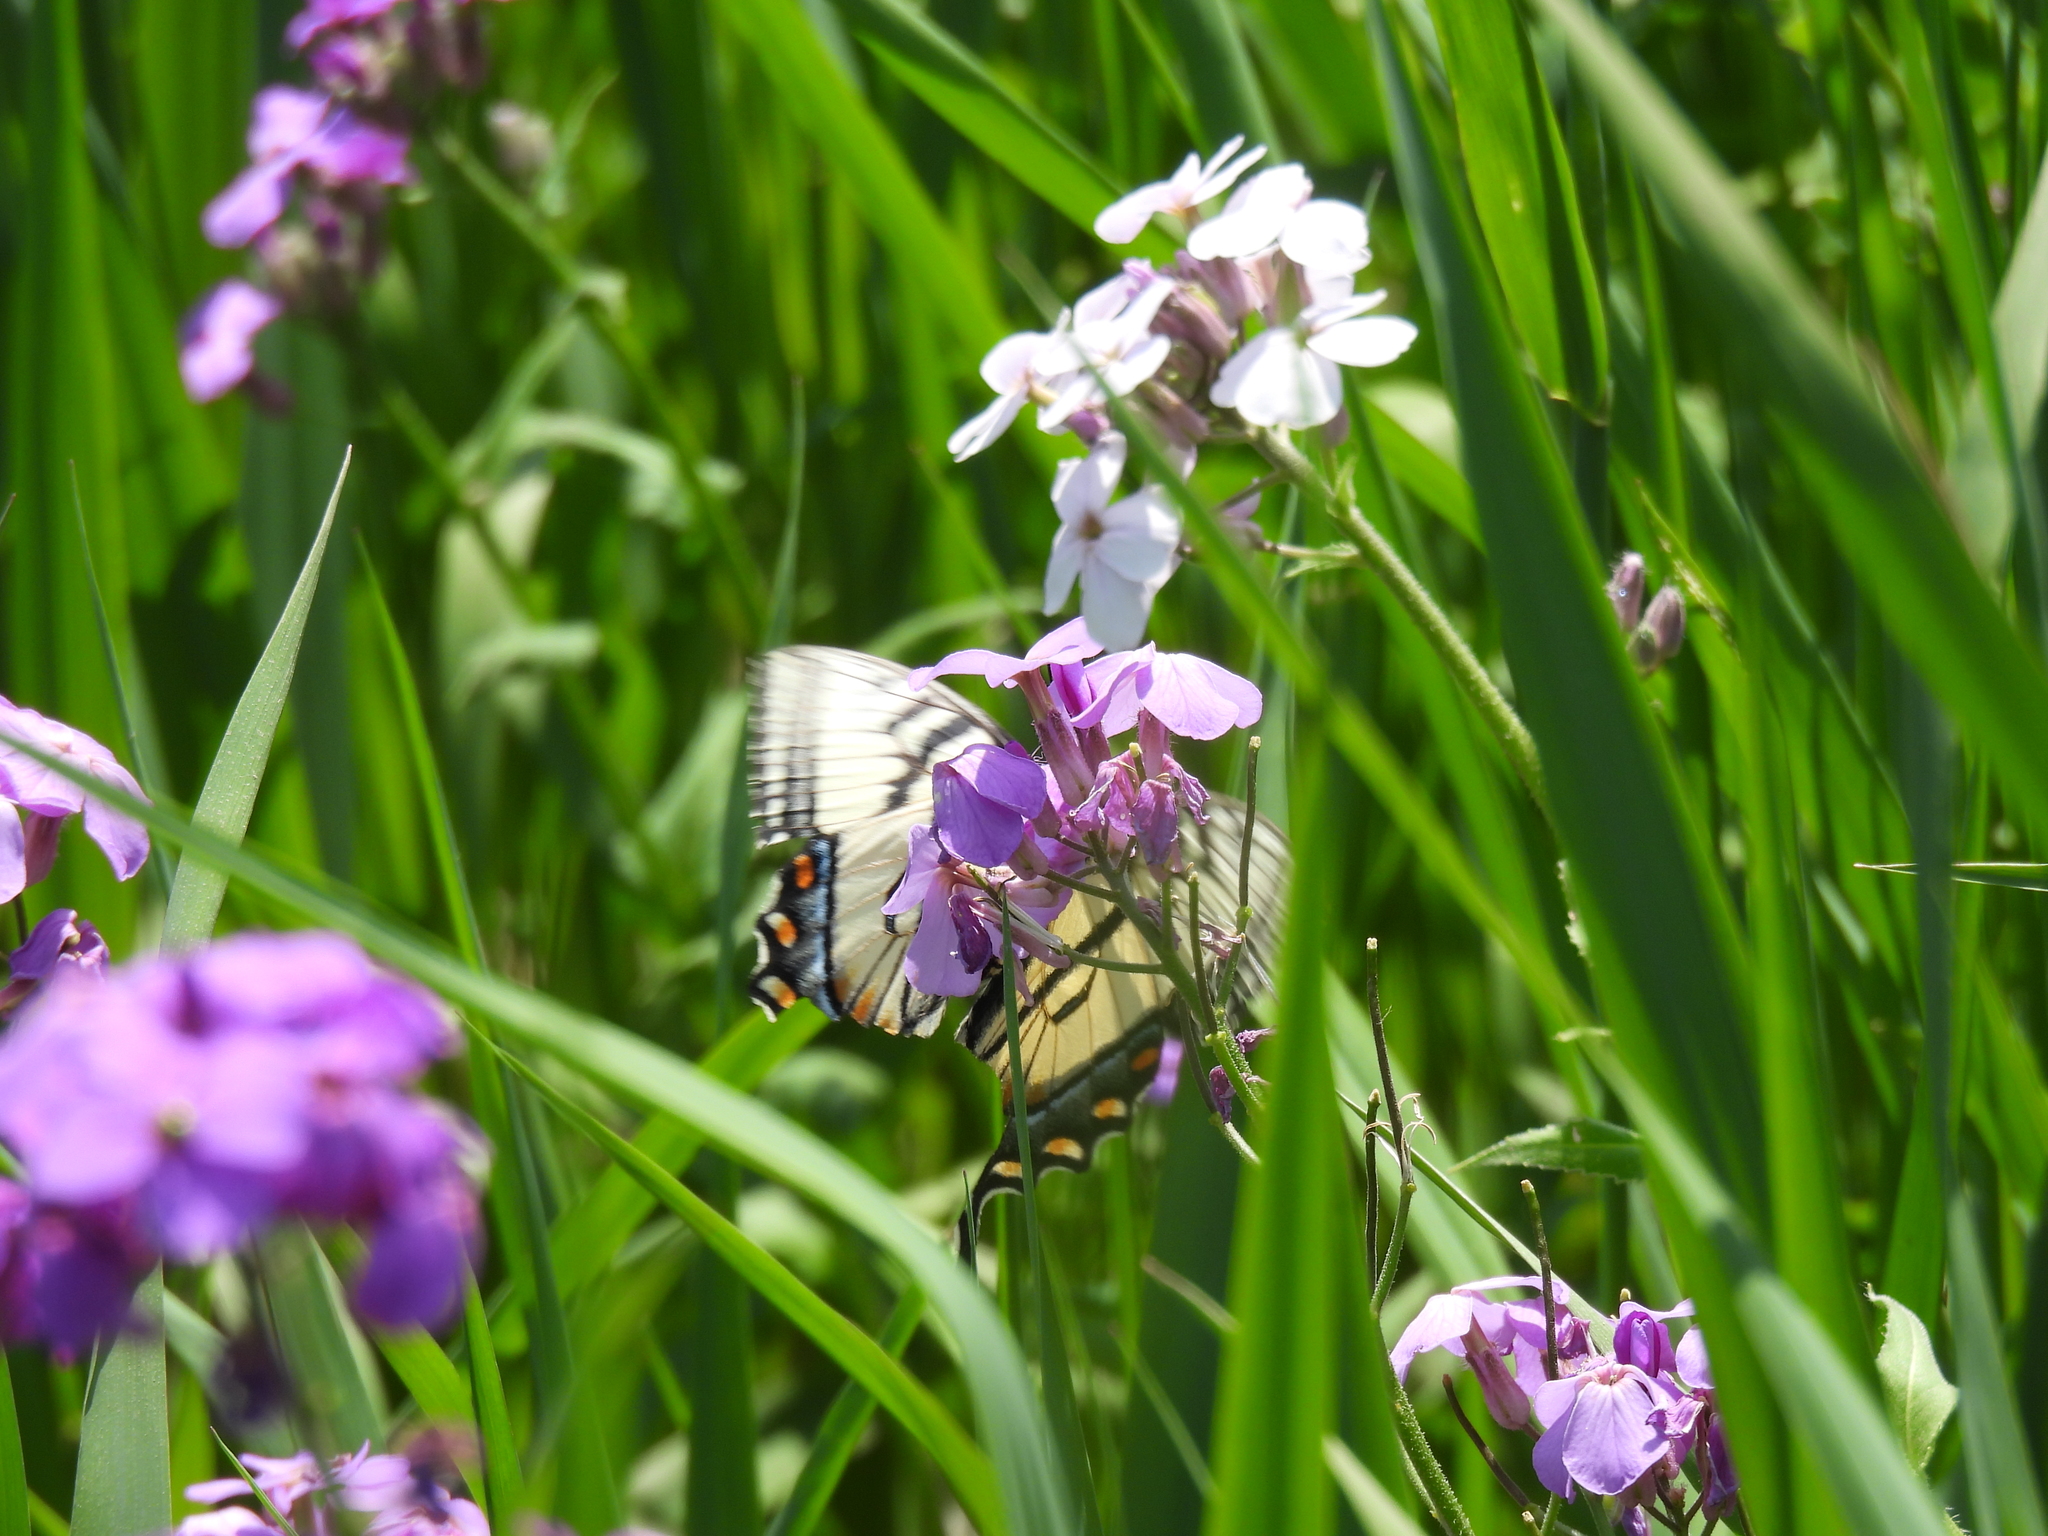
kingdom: Animalia
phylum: Arthropoda
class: Insecta
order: Lepidoptera
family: Papilionidae
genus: Papilio
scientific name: Papilio canadensis
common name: Canadian tiger swallowtail
